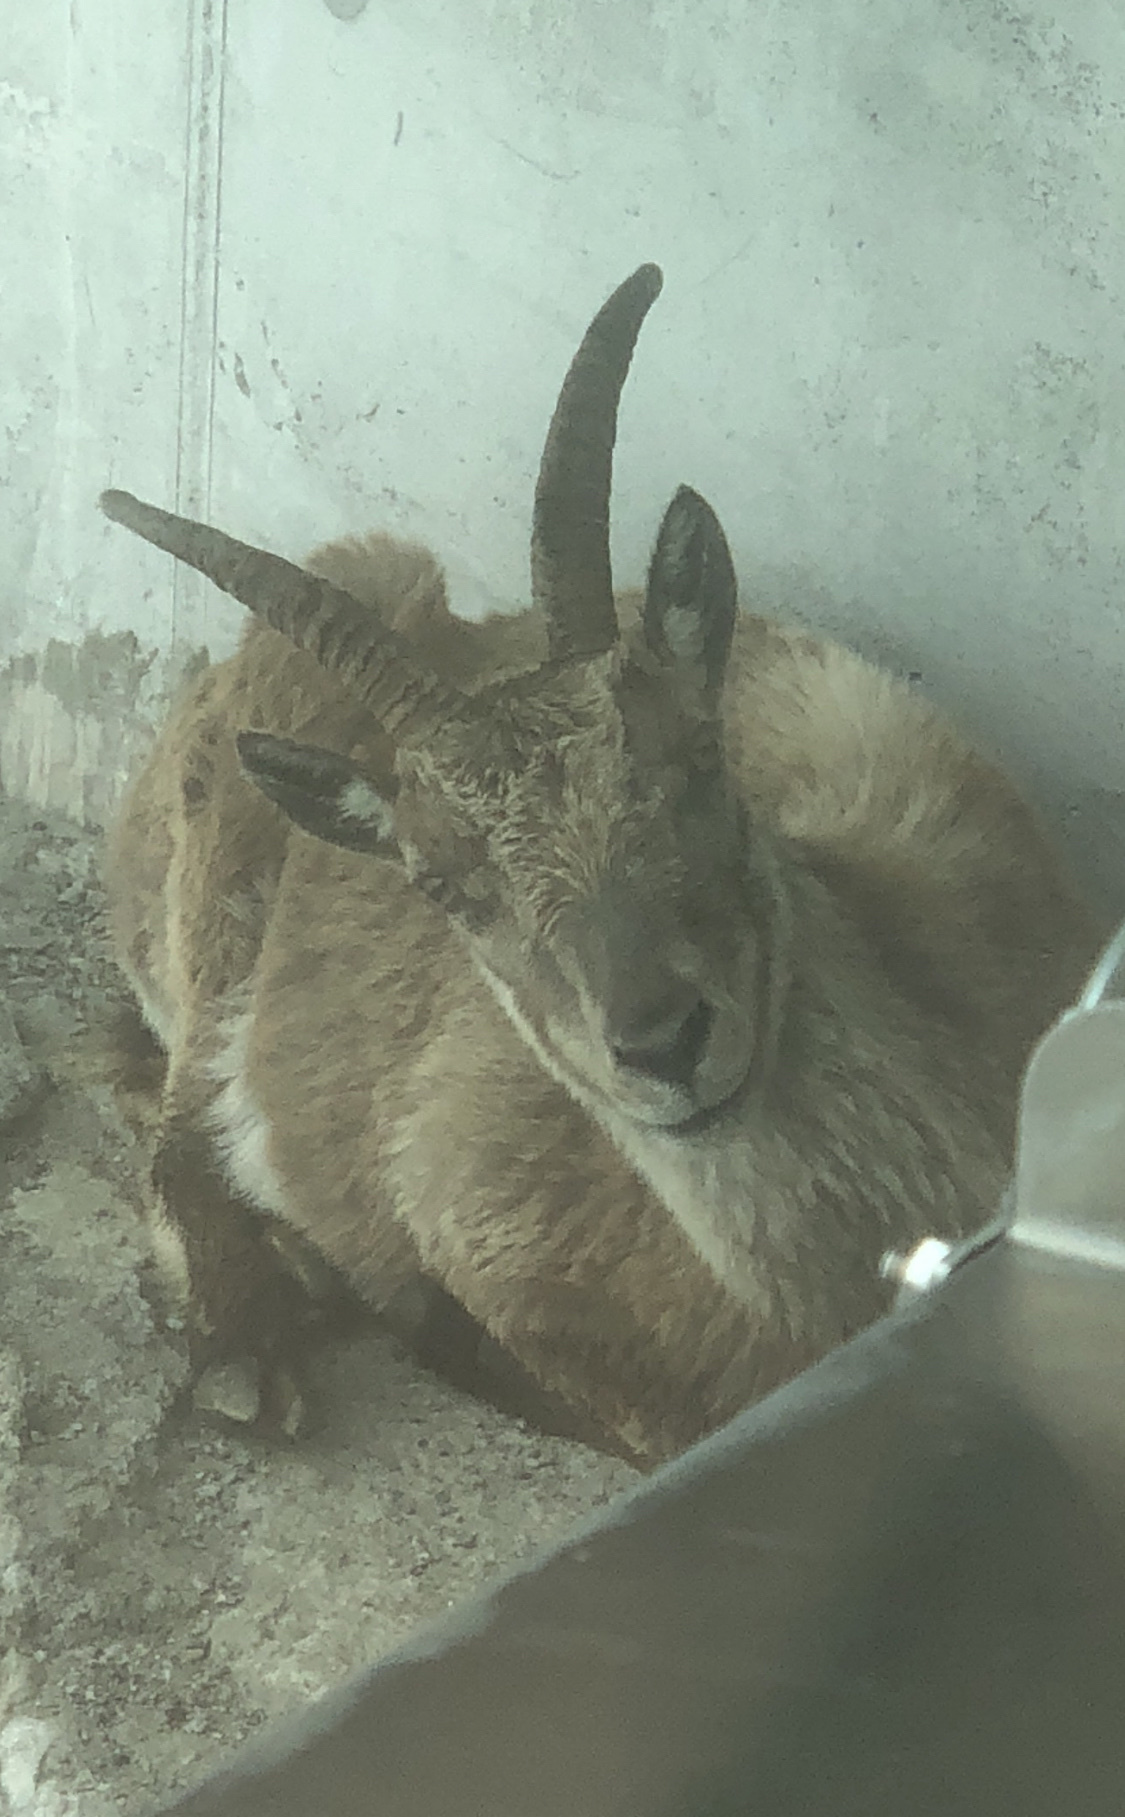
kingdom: Animalia
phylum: Chordata
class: Mammalia
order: Artiodactyla
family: Bovidae
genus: Capra
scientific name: Capra ibex
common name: Alpine ibex
